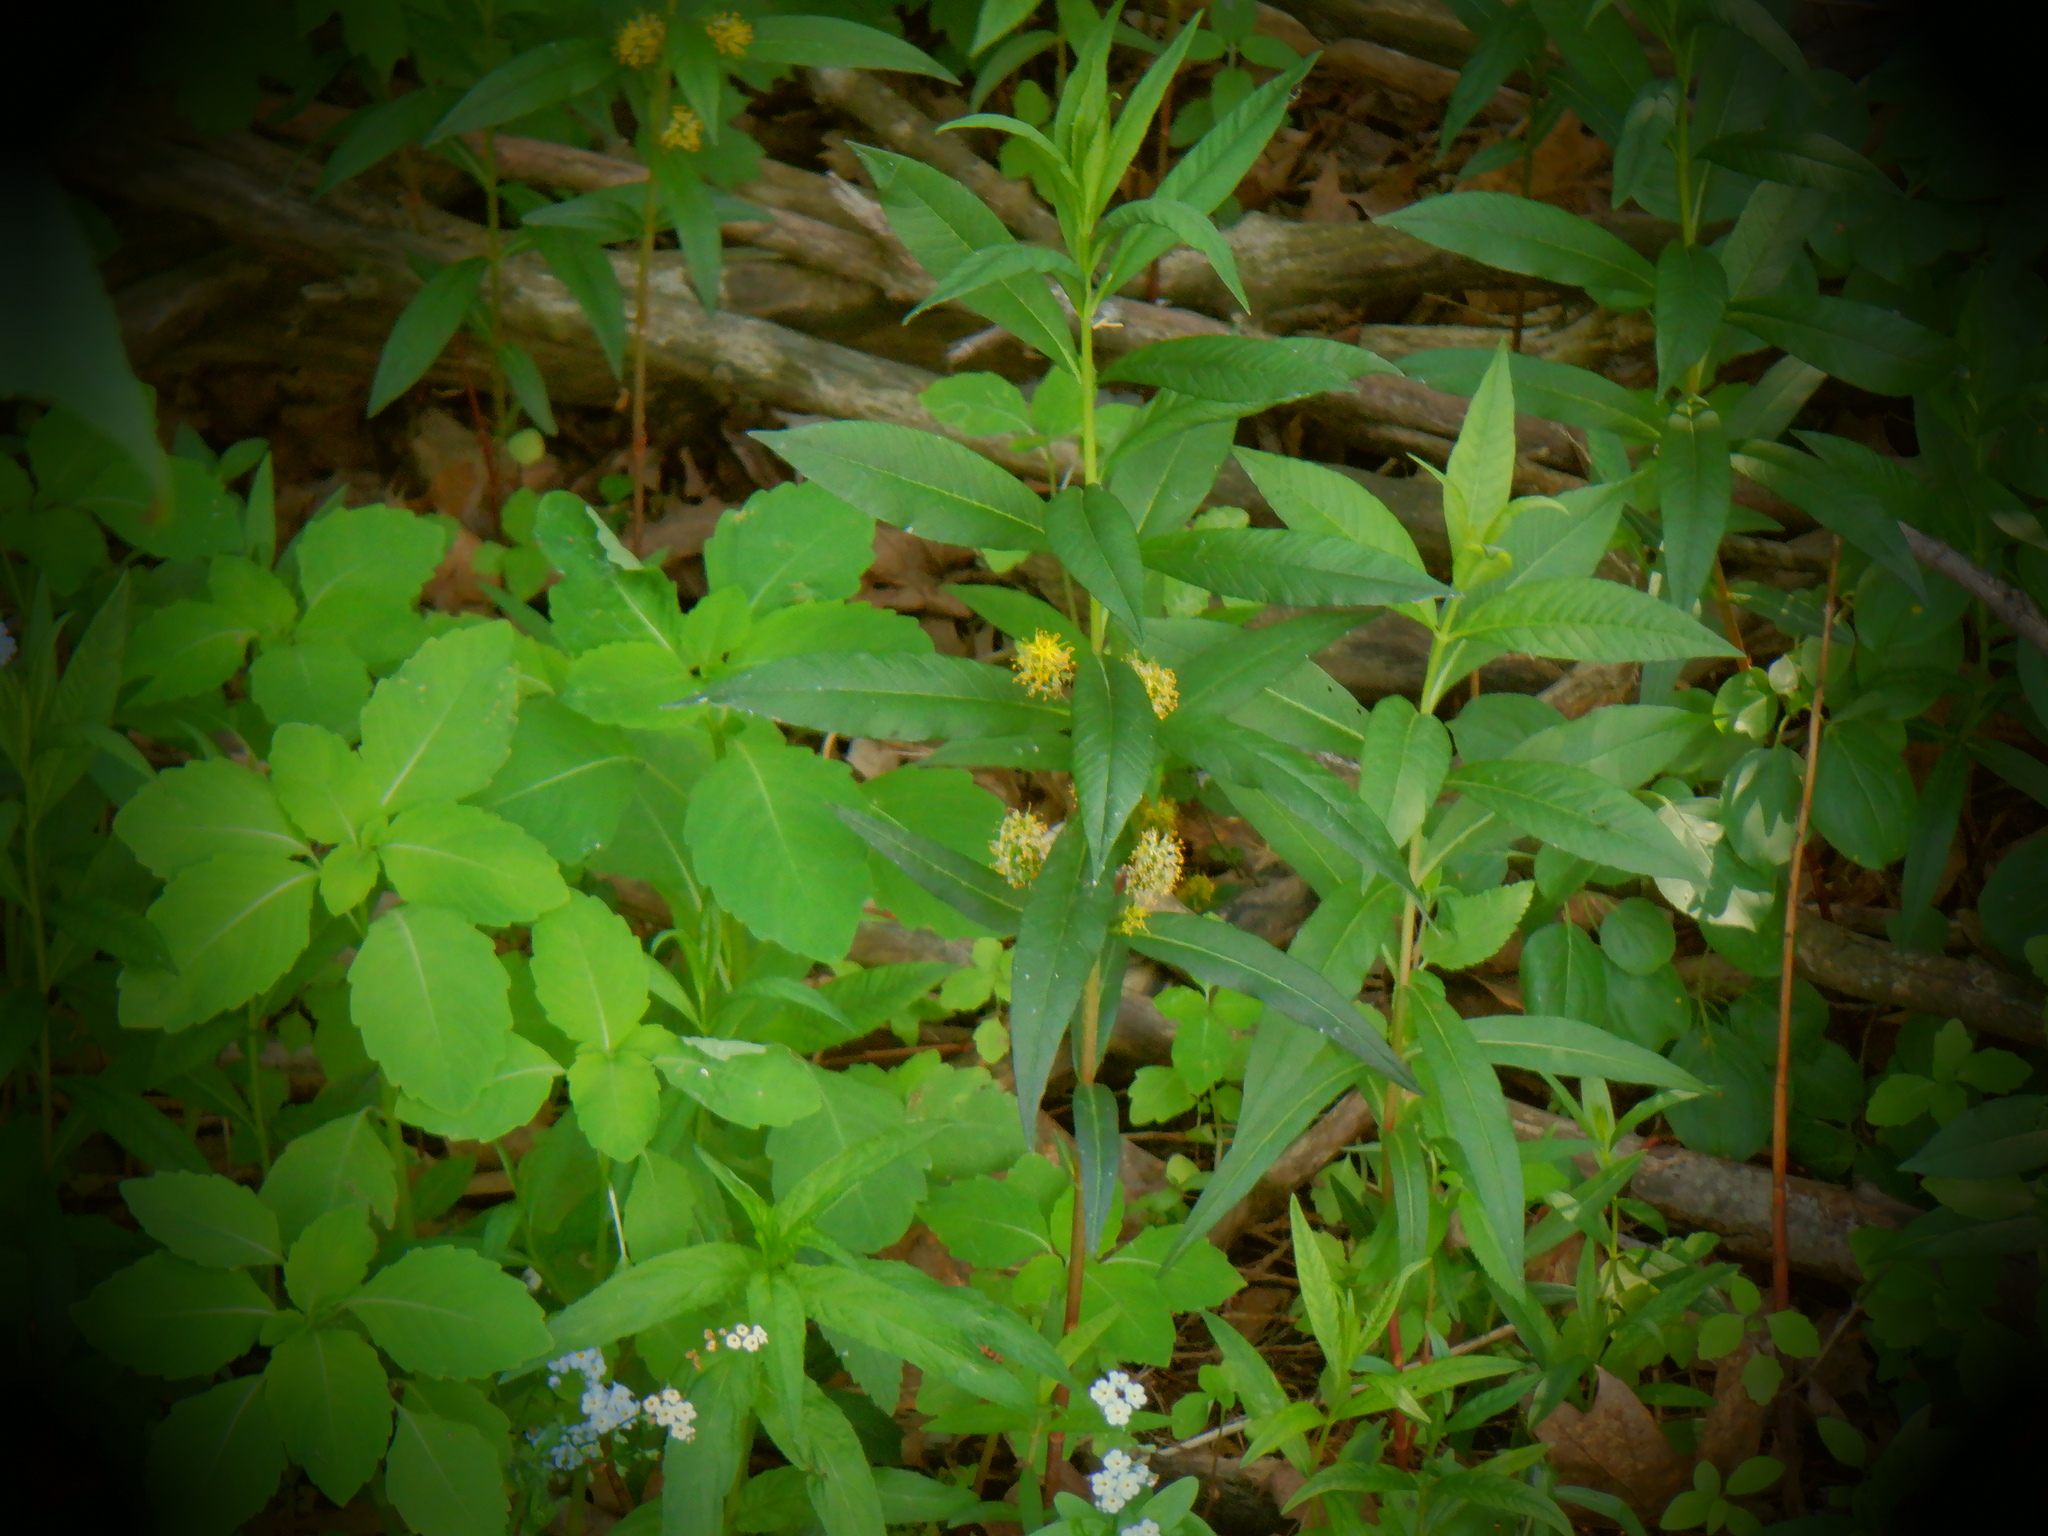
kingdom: Plantae
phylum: Tracheophyta
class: Magnoliopsida
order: Ericales
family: Primulaceae
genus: Lysimachia
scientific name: Lysimachia thyrsiflora
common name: Tufted loosestrife
